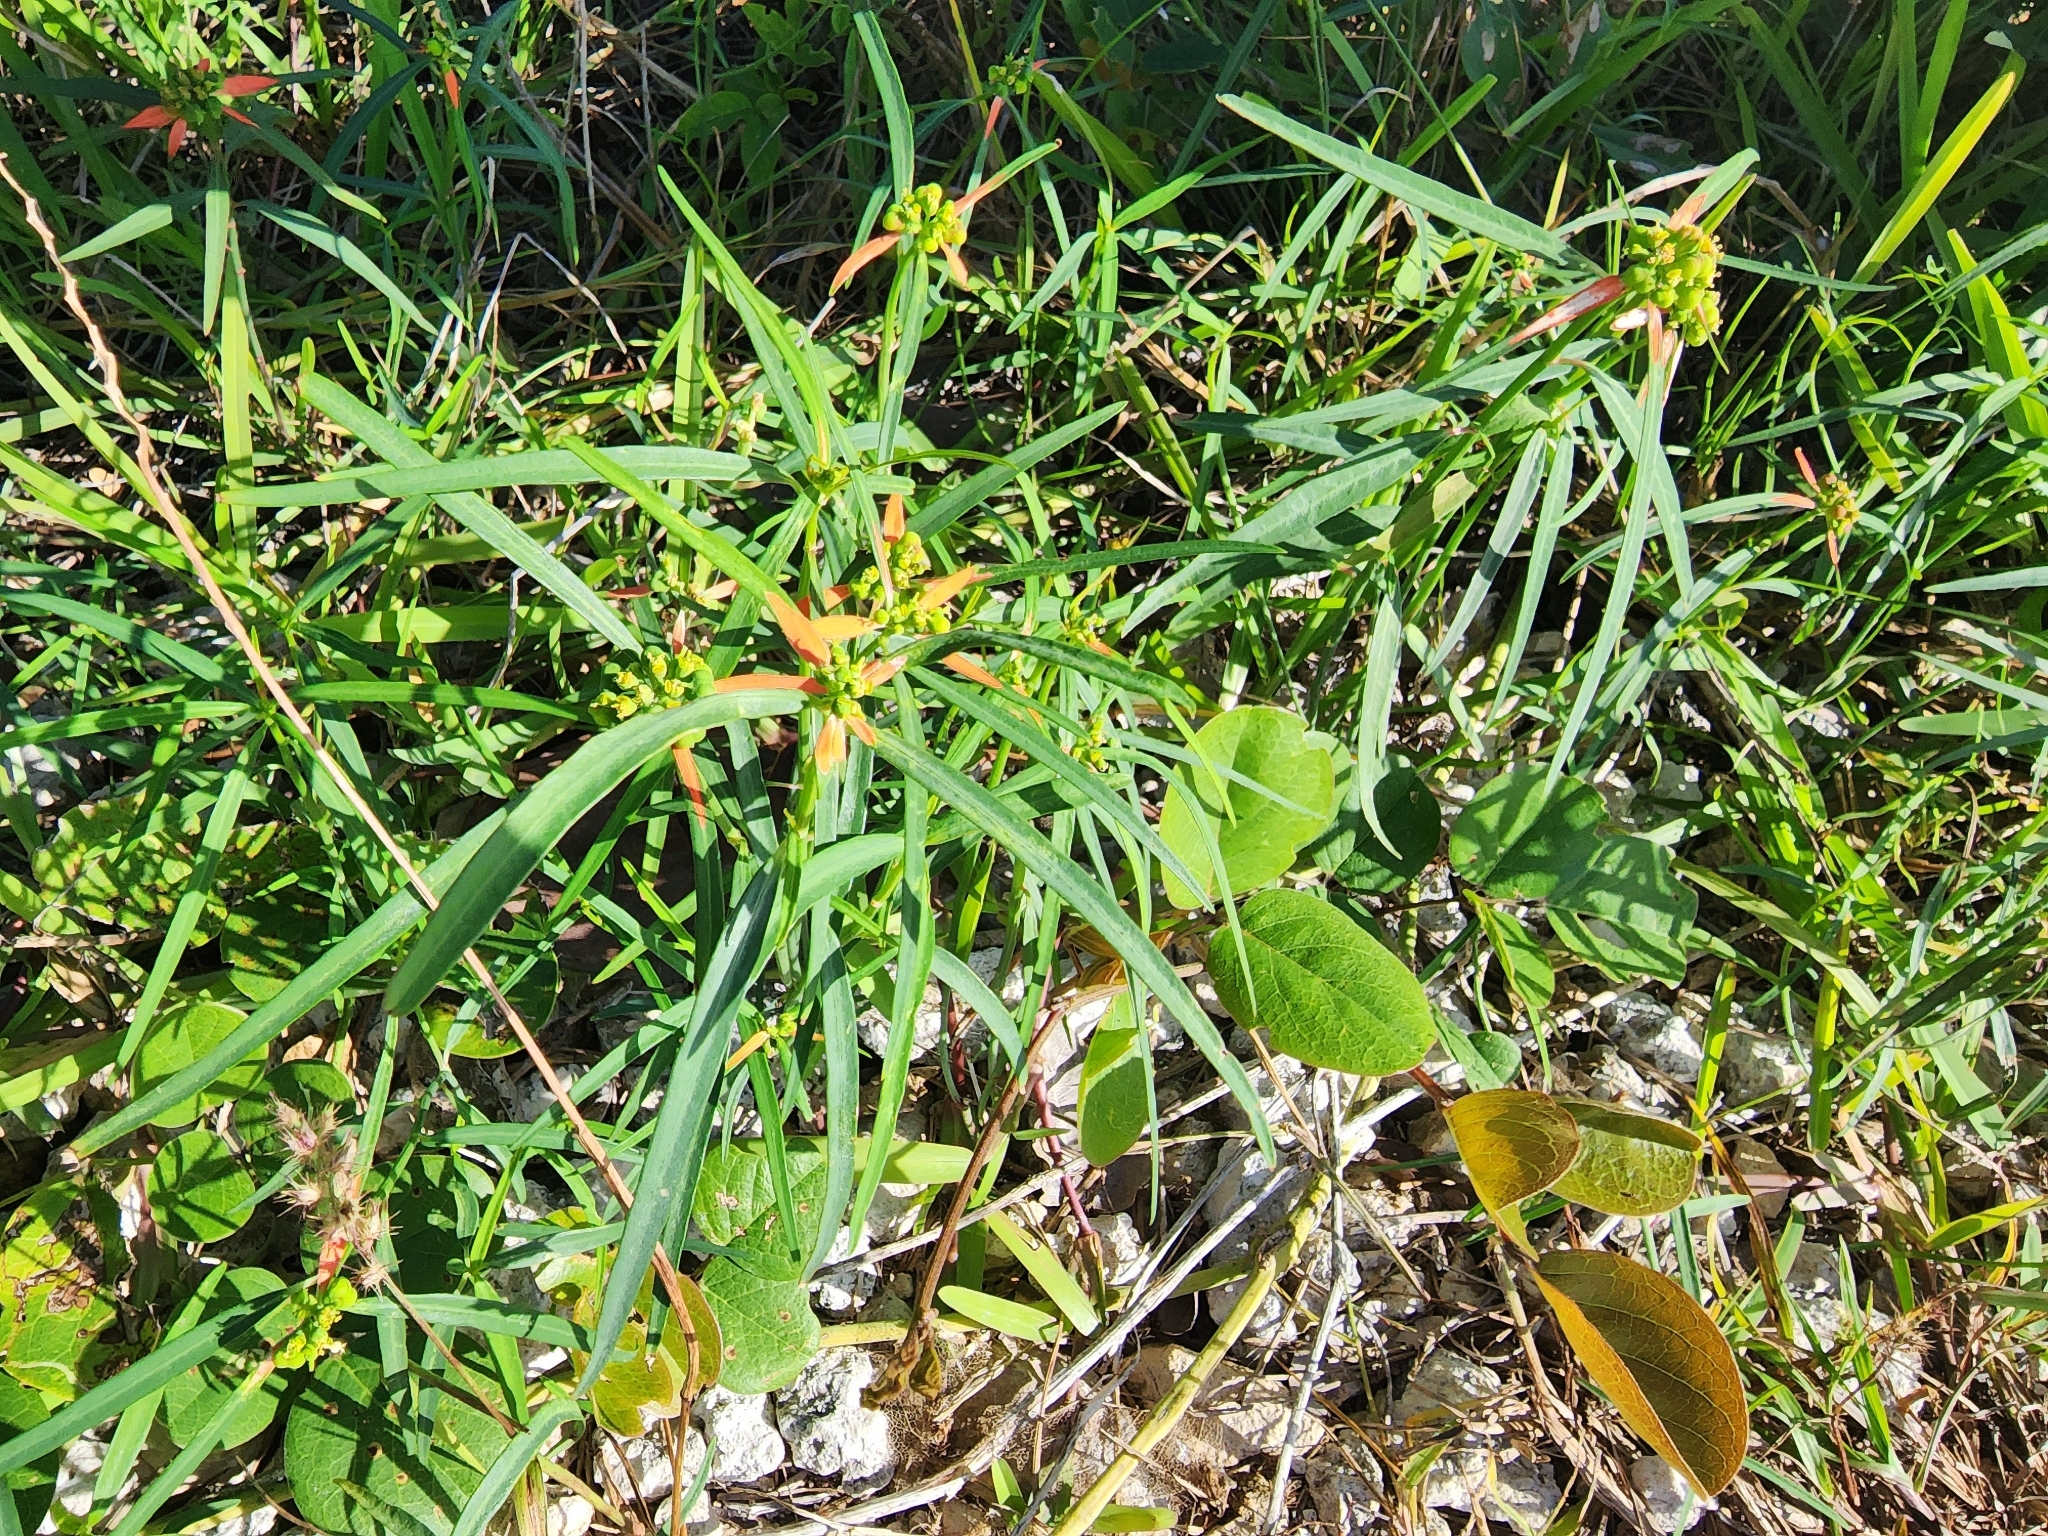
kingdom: Plantae
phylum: Tracheophyta
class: Magnoliopsida
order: Malpighiales
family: Euphorbiaceae
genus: Euphorbia
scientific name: Euphorbia heterophylla
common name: Mexican fireplant
